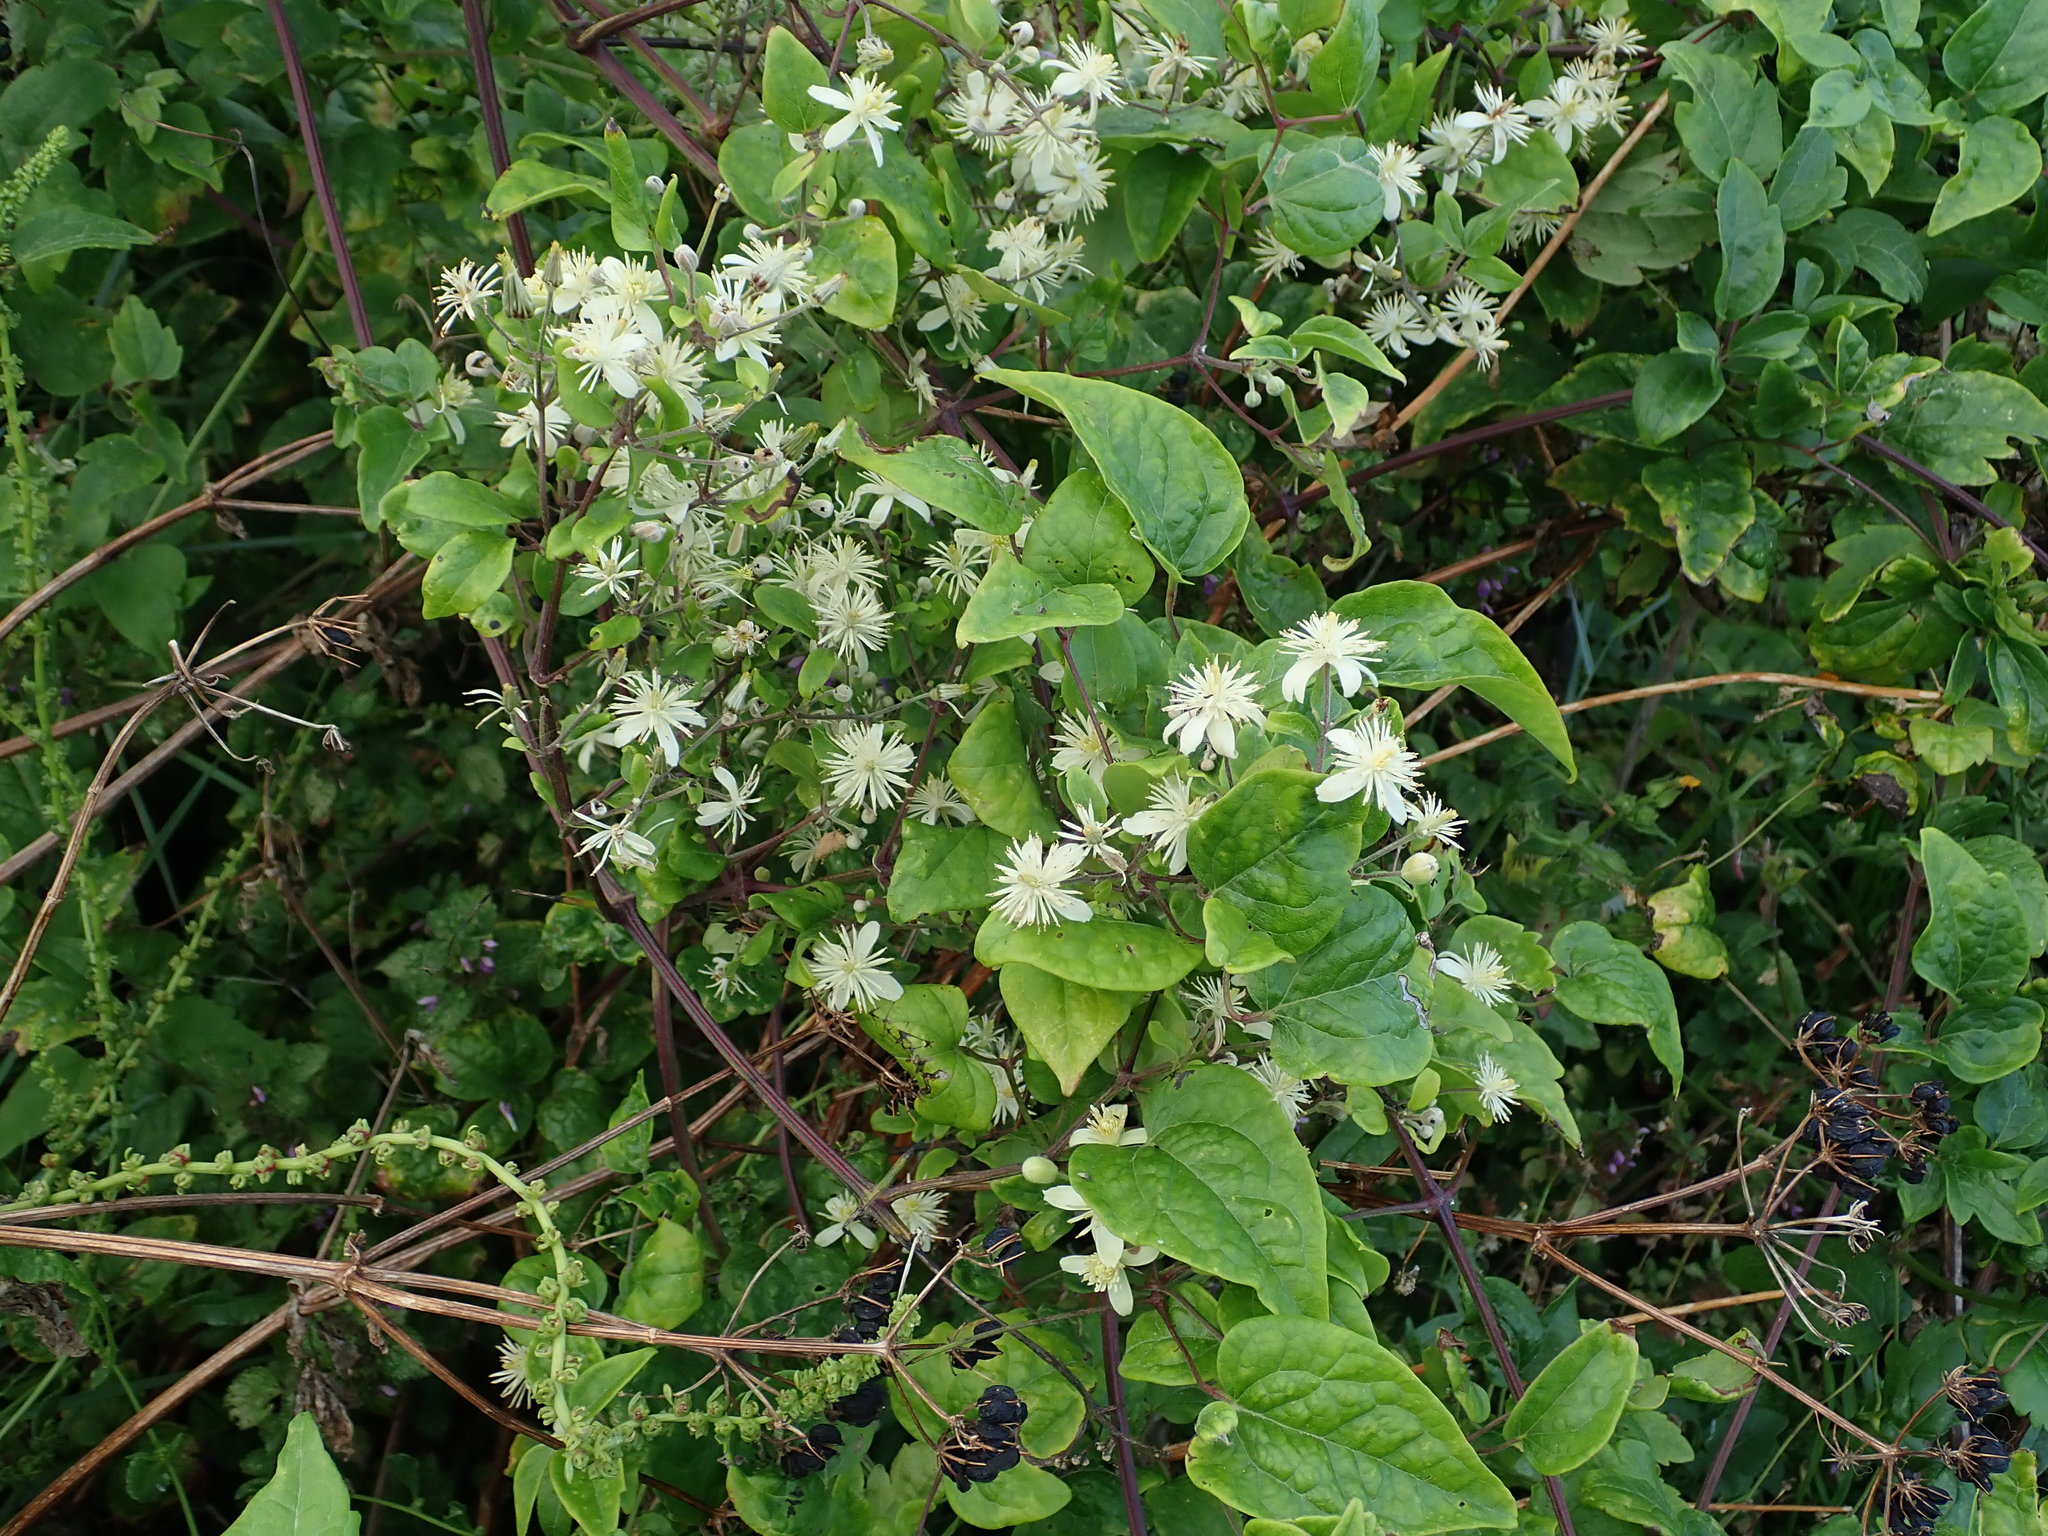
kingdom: Plantae
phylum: Tracheophyta
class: Magnoliopsida
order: Ranunculales
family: Ranunculaceae
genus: Clematis
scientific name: Clematis vitalba
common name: Evergreen clematis
